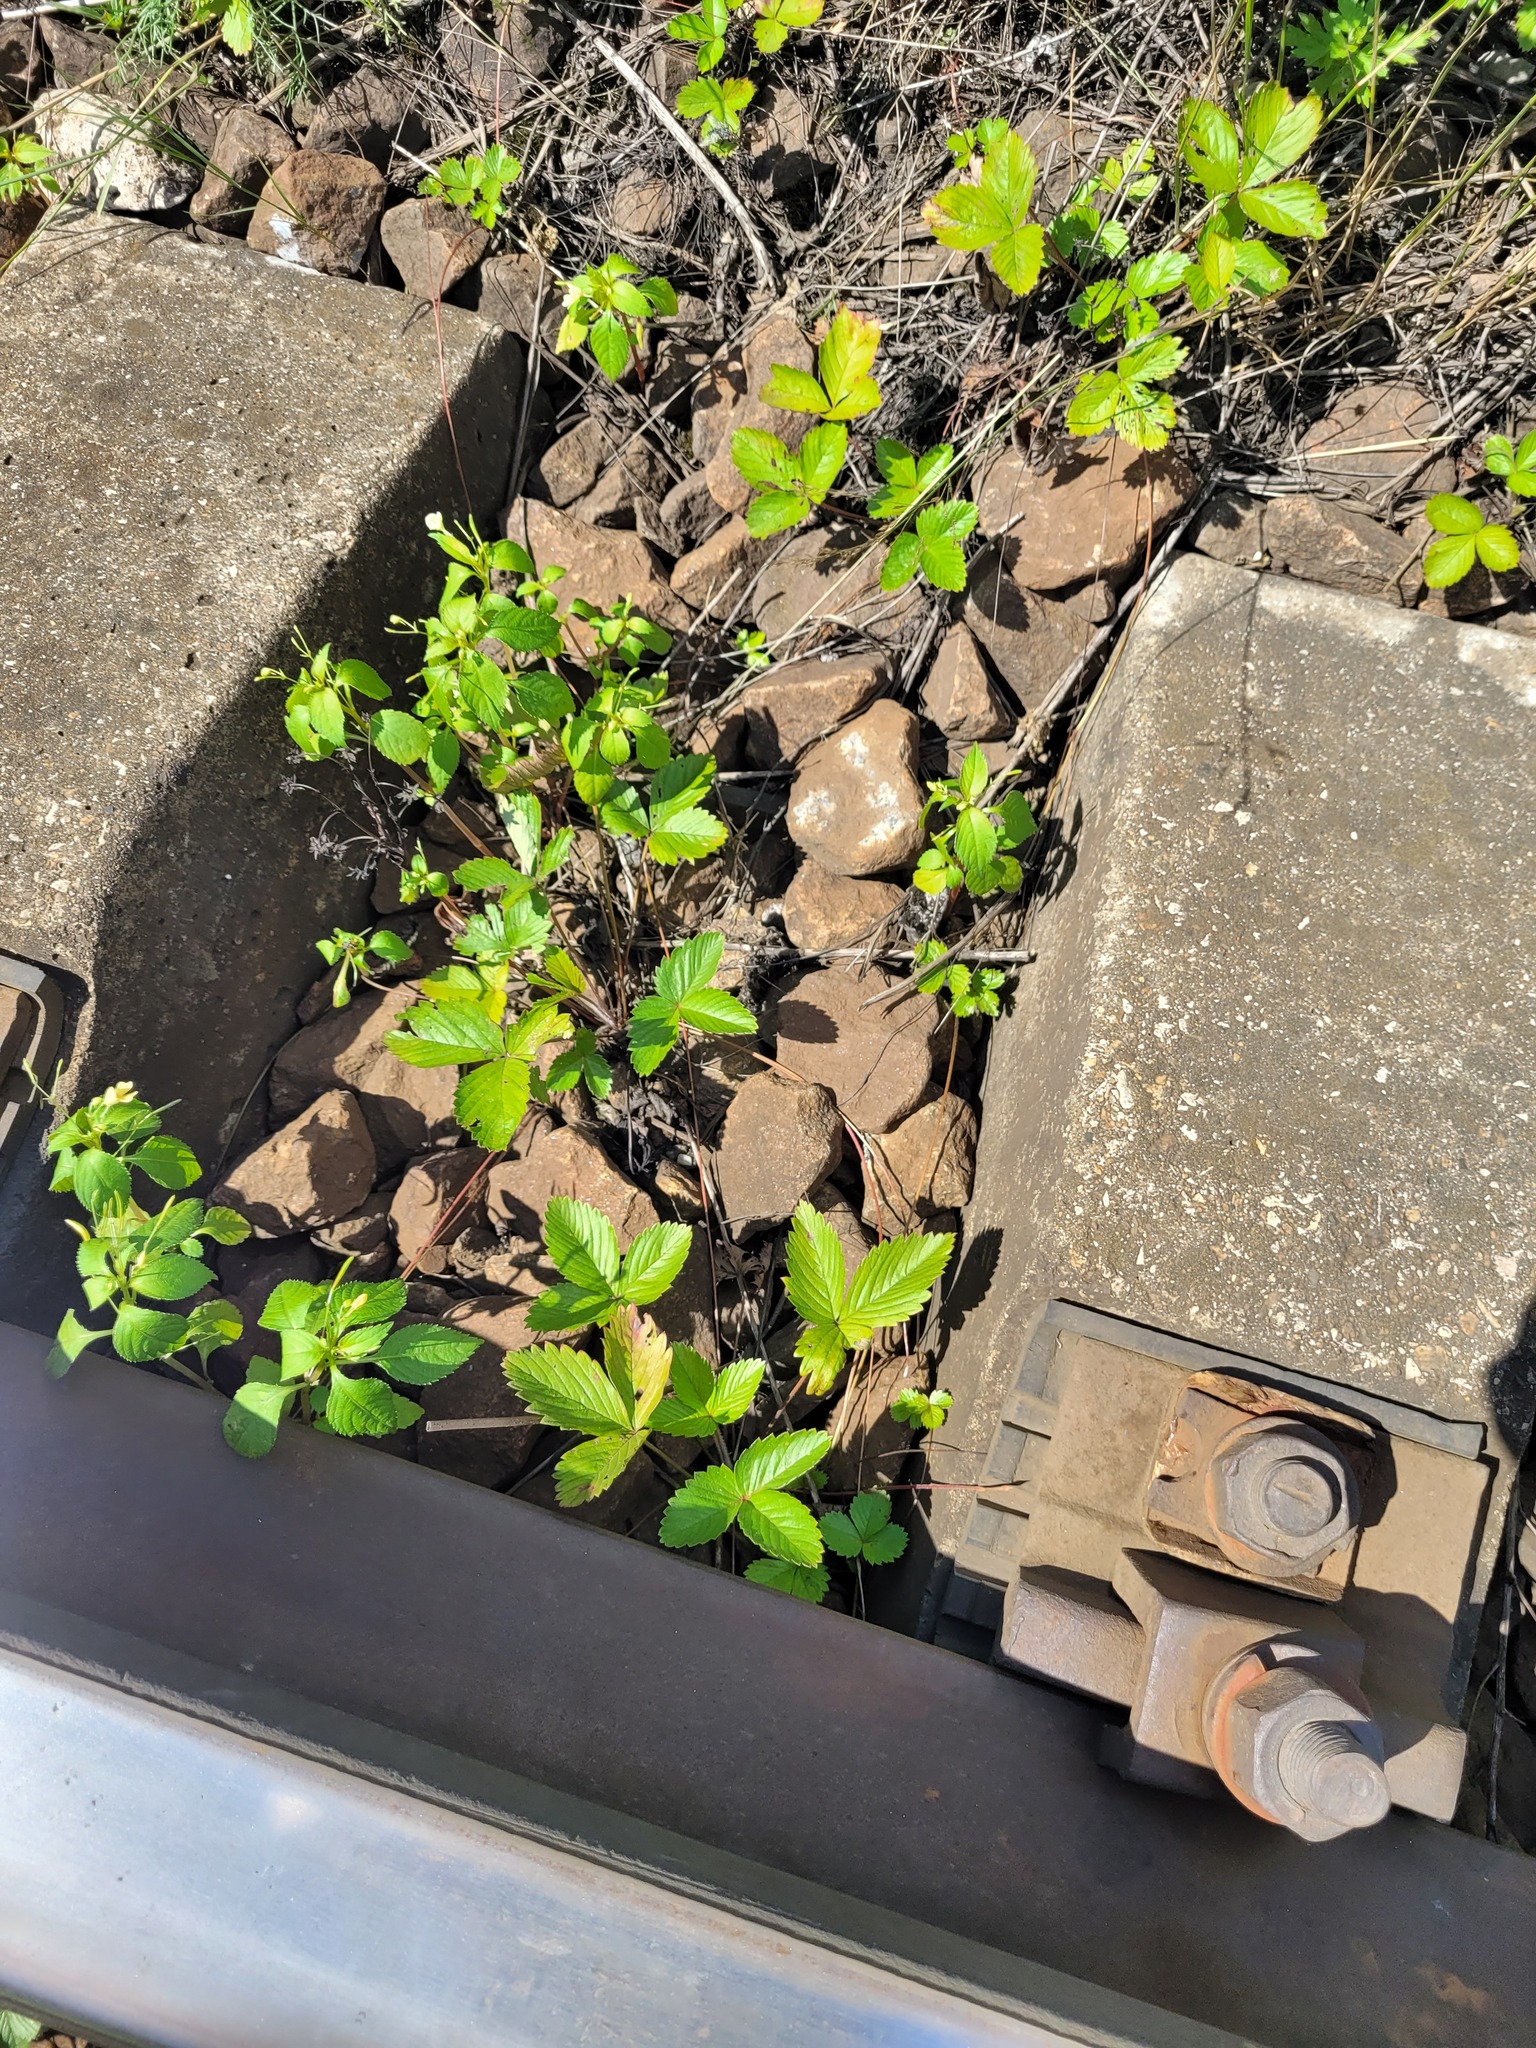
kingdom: Plantae
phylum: Tracheophyta
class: Magnoliopsida
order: Rosales
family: Rosaceae
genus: Fragaria
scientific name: Fragaria vesca
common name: Wild strawberry
